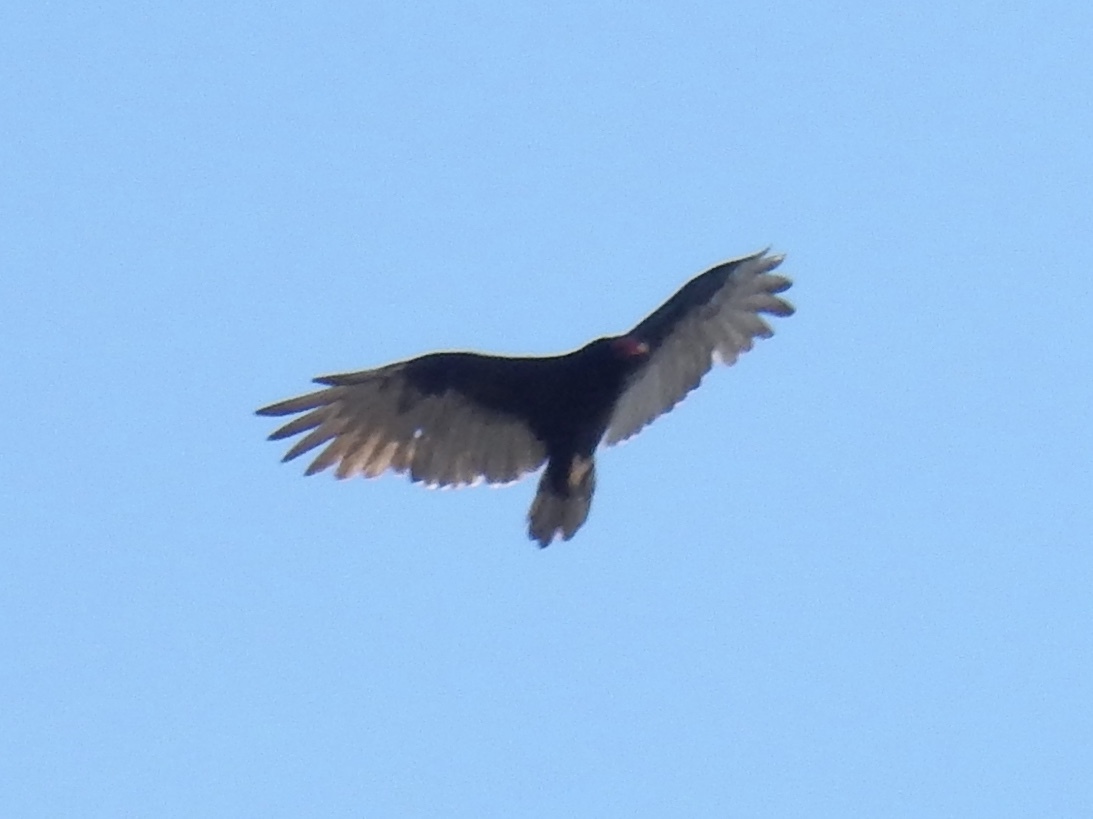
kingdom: Animalia
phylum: Chordata
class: Aves
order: Accipitriformes
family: Cathartidae
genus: Cathartes
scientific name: Cathartes aura
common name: Turkey vulture
